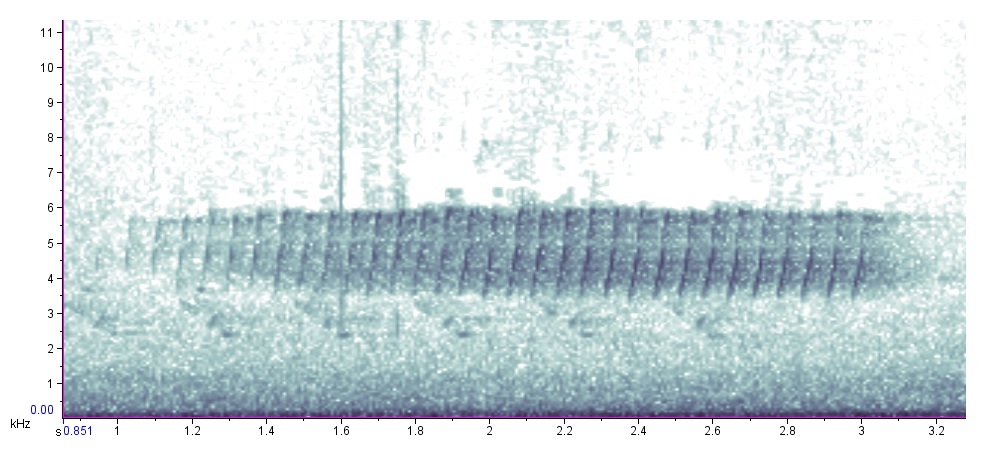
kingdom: Animalia
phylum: Chordata
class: Aves
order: Passeriformes
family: Parulidae
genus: Setophaga
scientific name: Setophaga pinus
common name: Pine warbler
